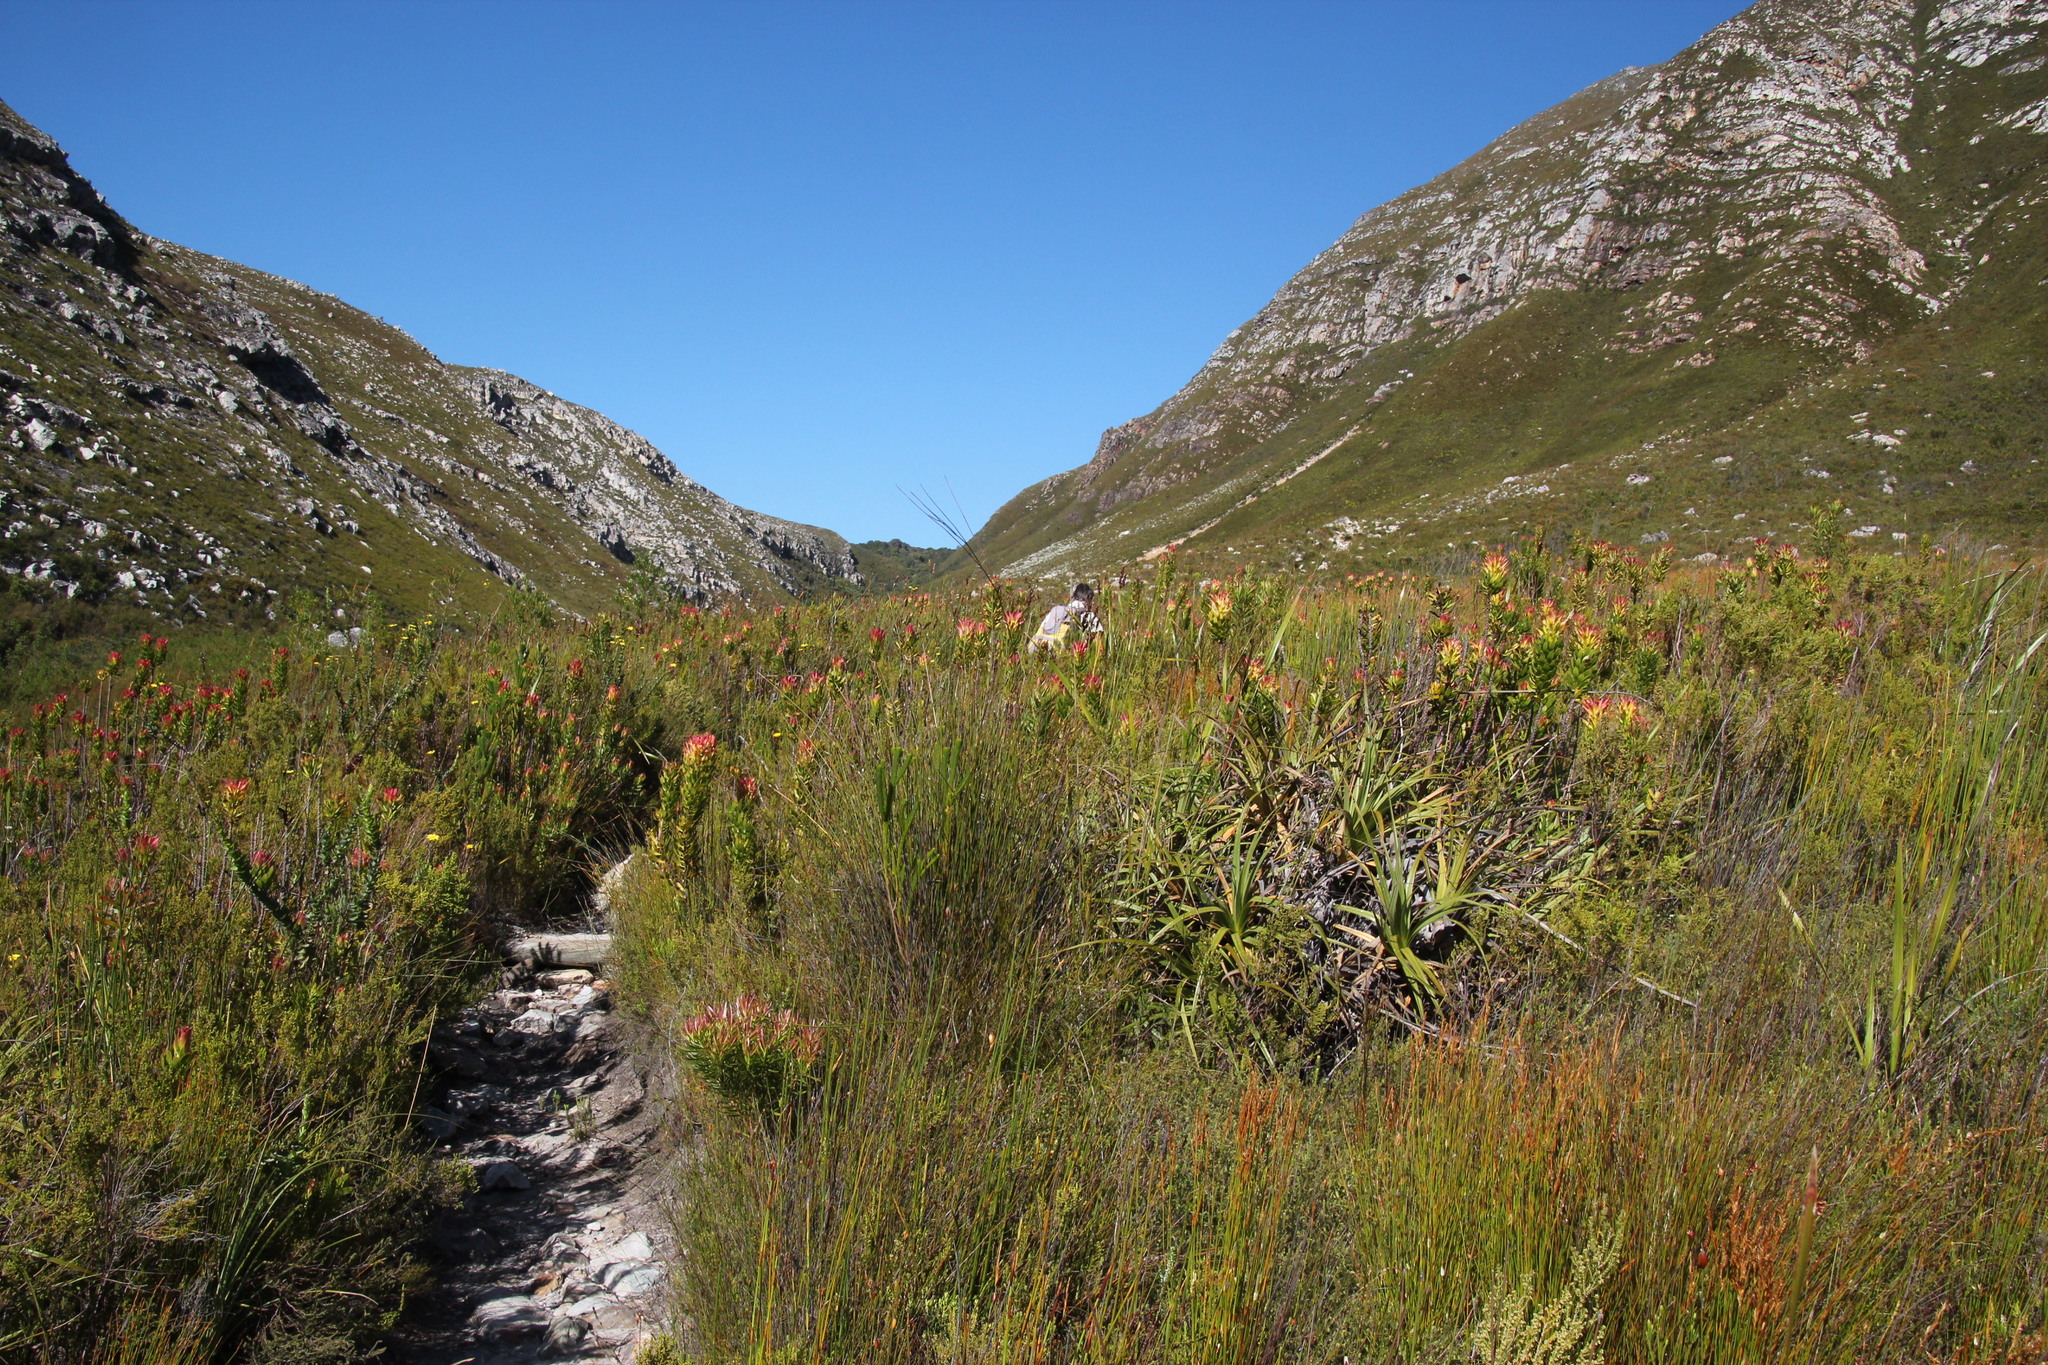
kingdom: Plantae
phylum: Tracheophyta
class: Magnoliopsida
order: Proteales
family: Proteaceae
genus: Mimetes
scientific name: Mimetes cucullatus
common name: Common pagoda
